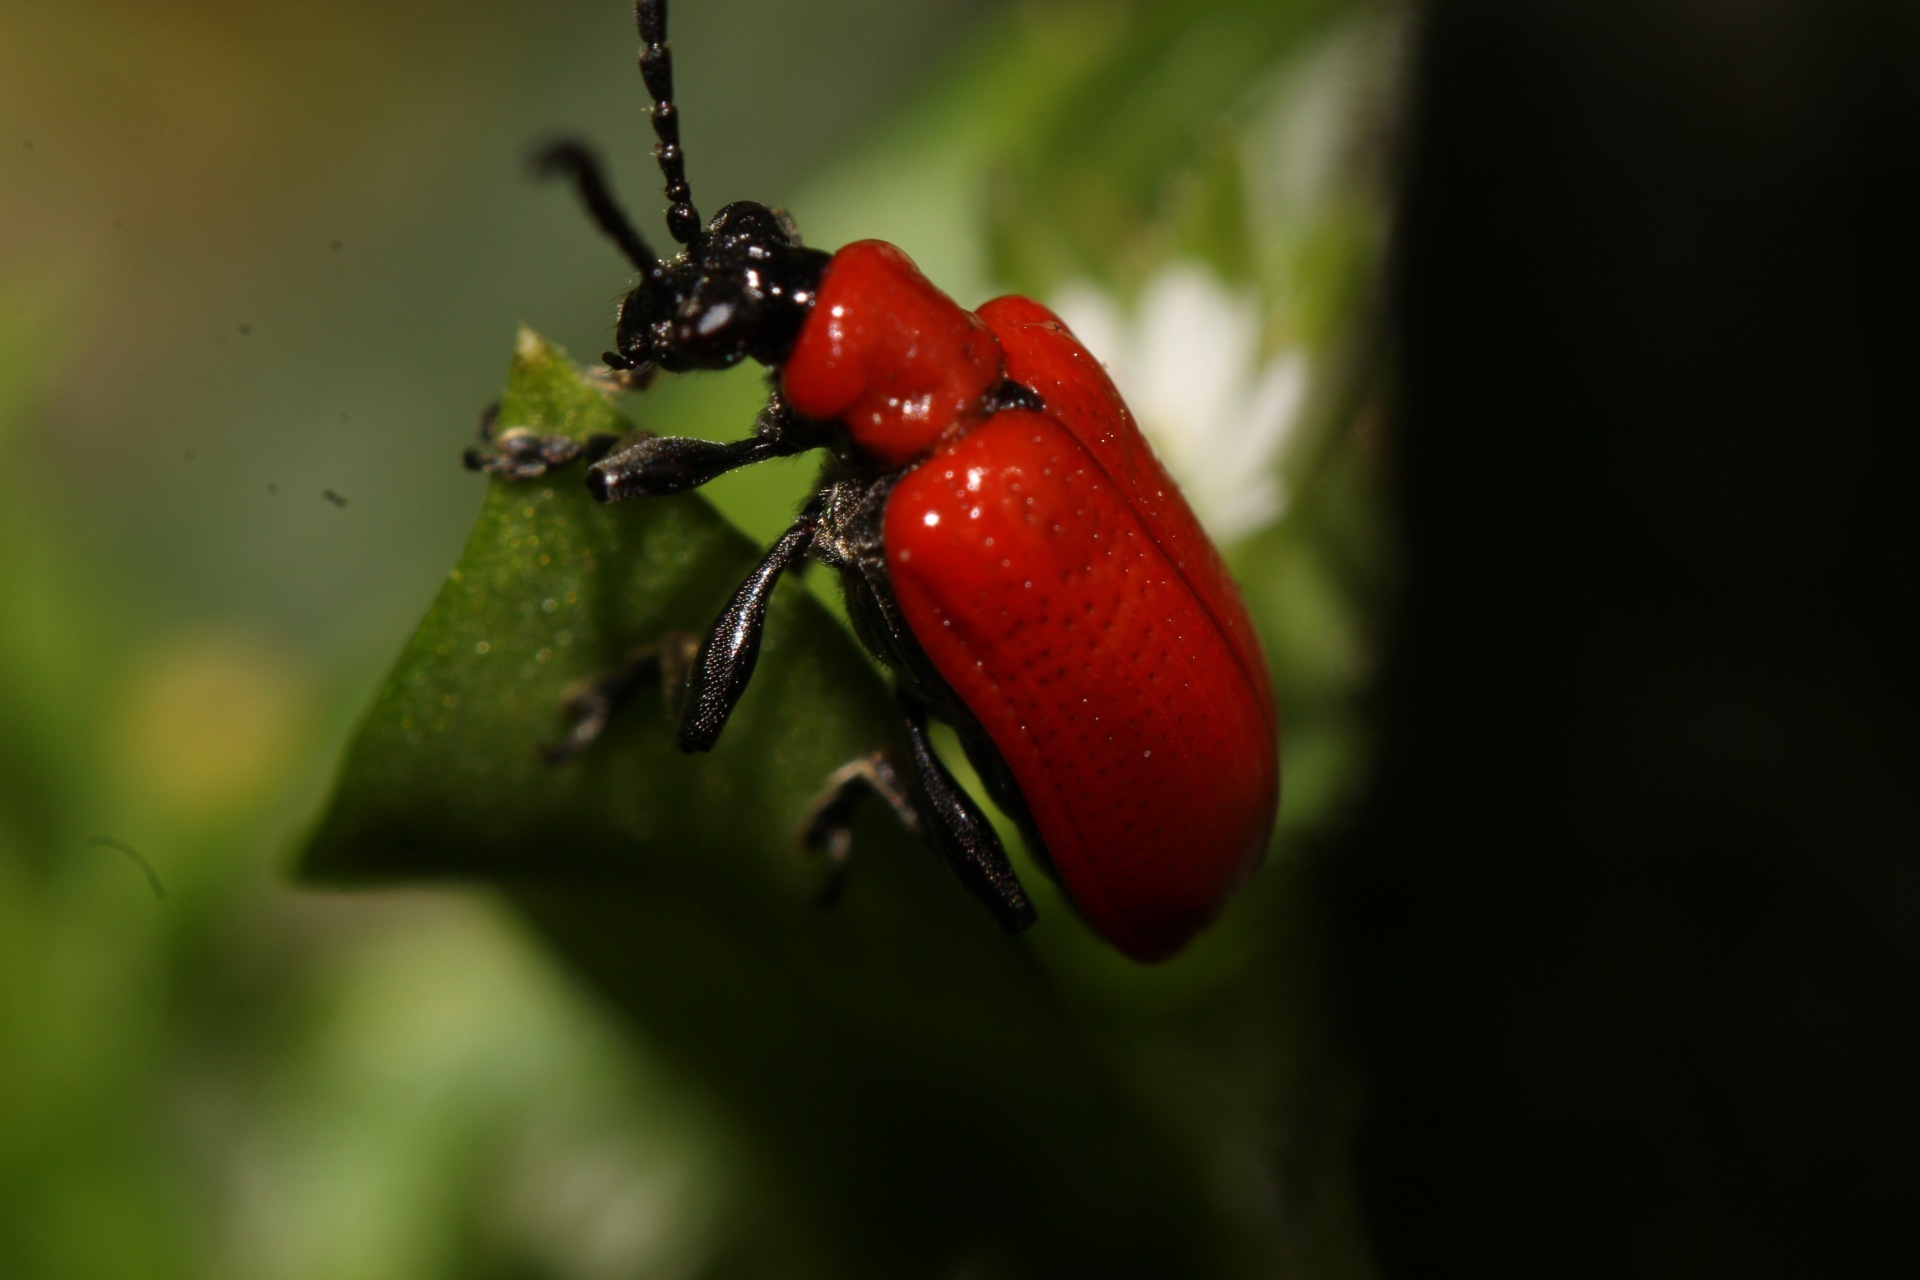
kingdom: Animalia
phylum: Arthropoda
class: Insecta
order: Coleoptera
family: Chrysomelidae
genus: Lilioceris
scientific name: Lilioceris lilii
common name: Lily beetle
